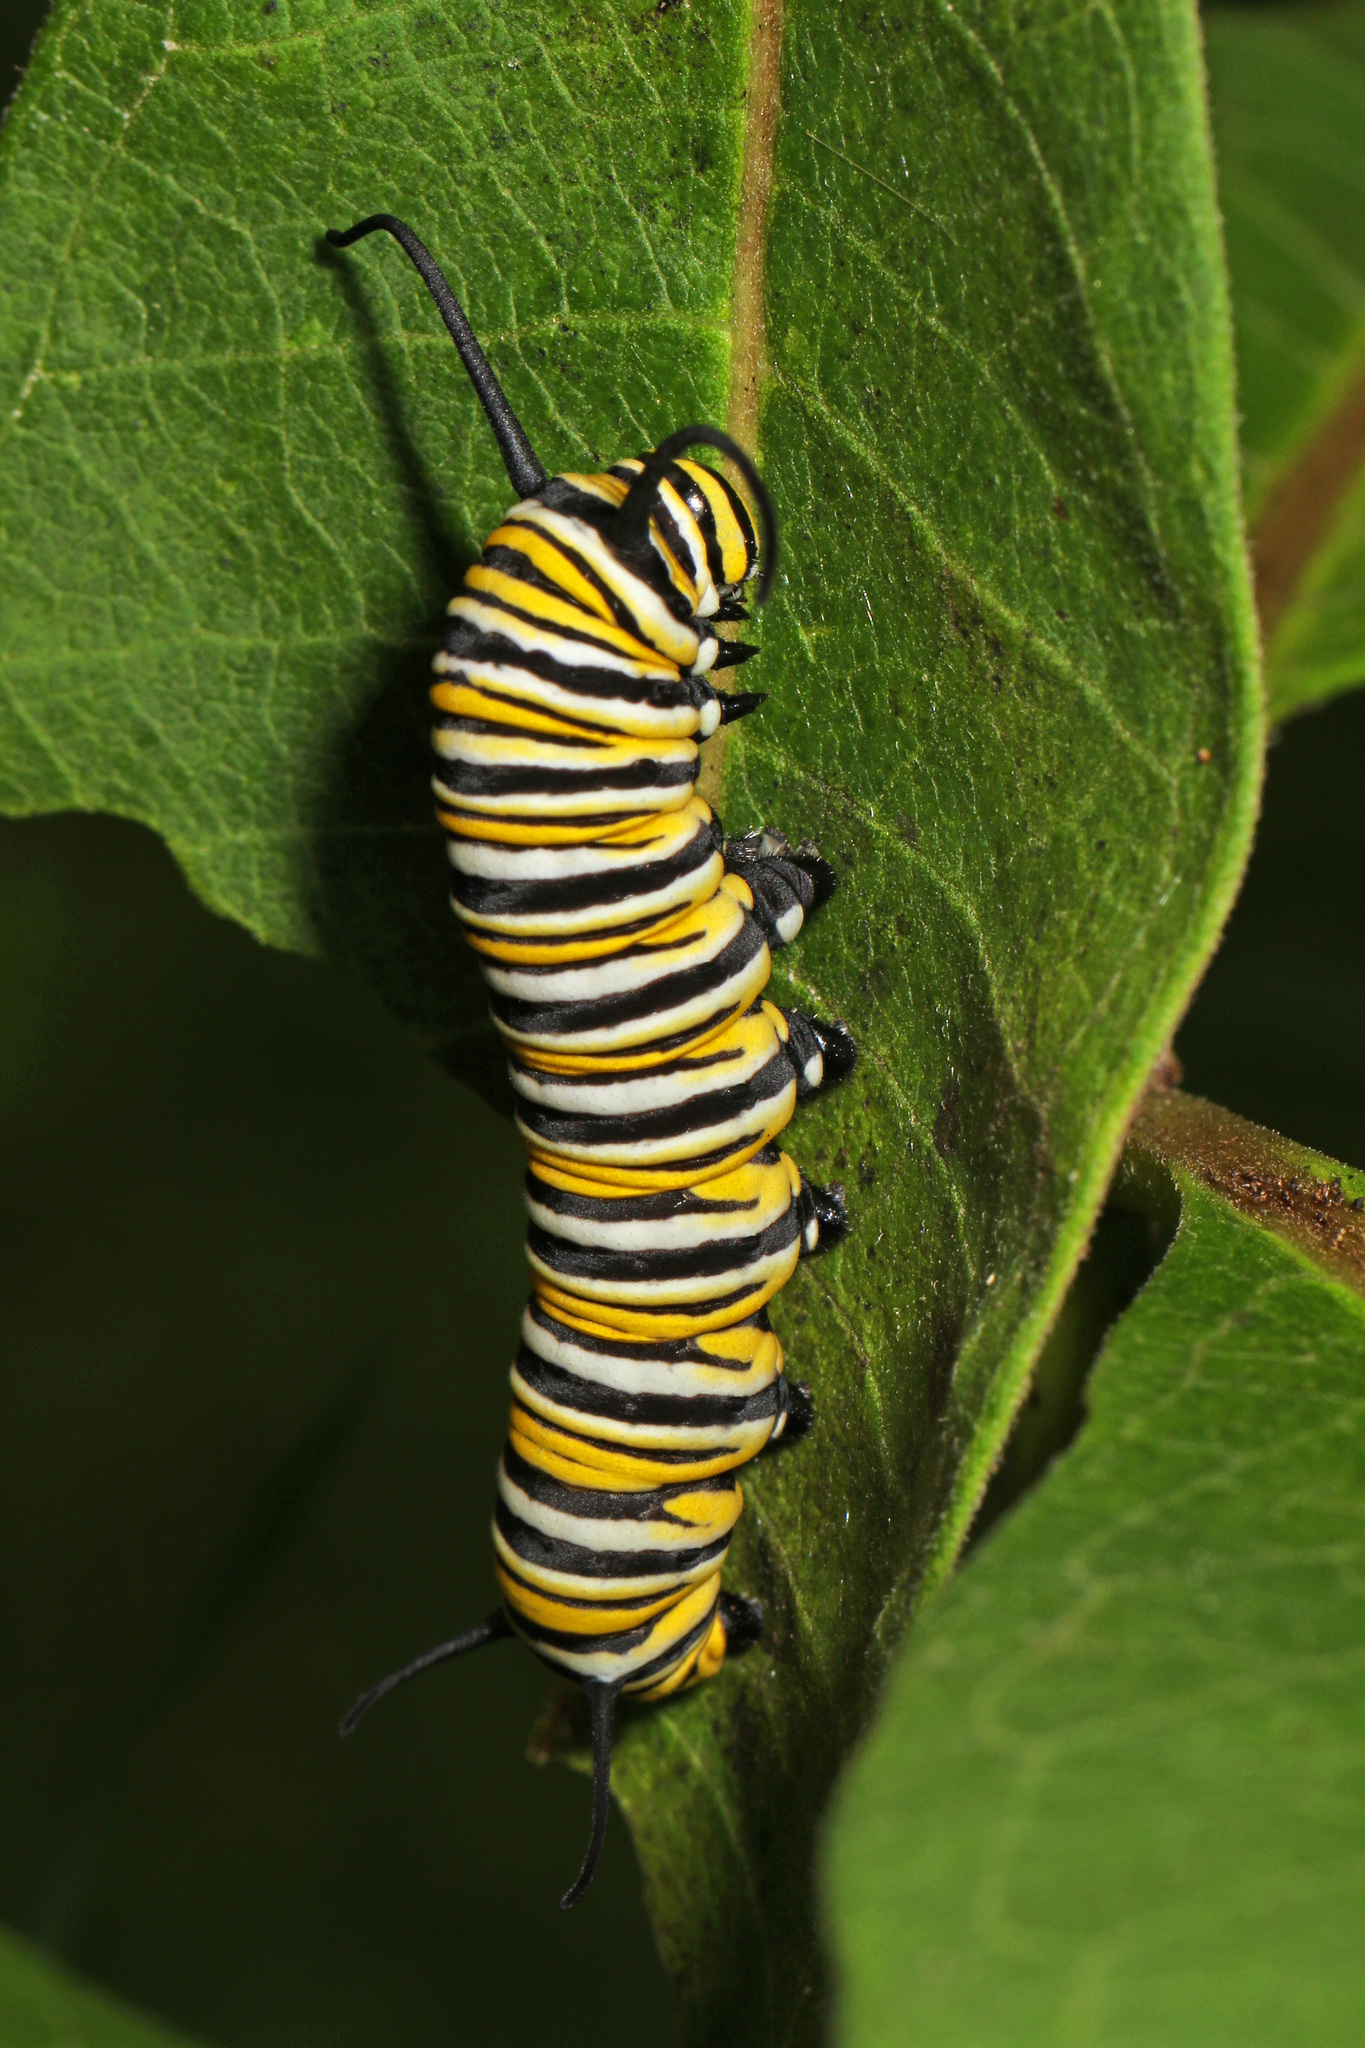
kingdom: Animalia
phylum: Arthropoda
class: Insecta
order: Lepidoptera
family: Nymphalidae
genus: Danaus
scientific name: Danaus plexippus
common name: Monarch
